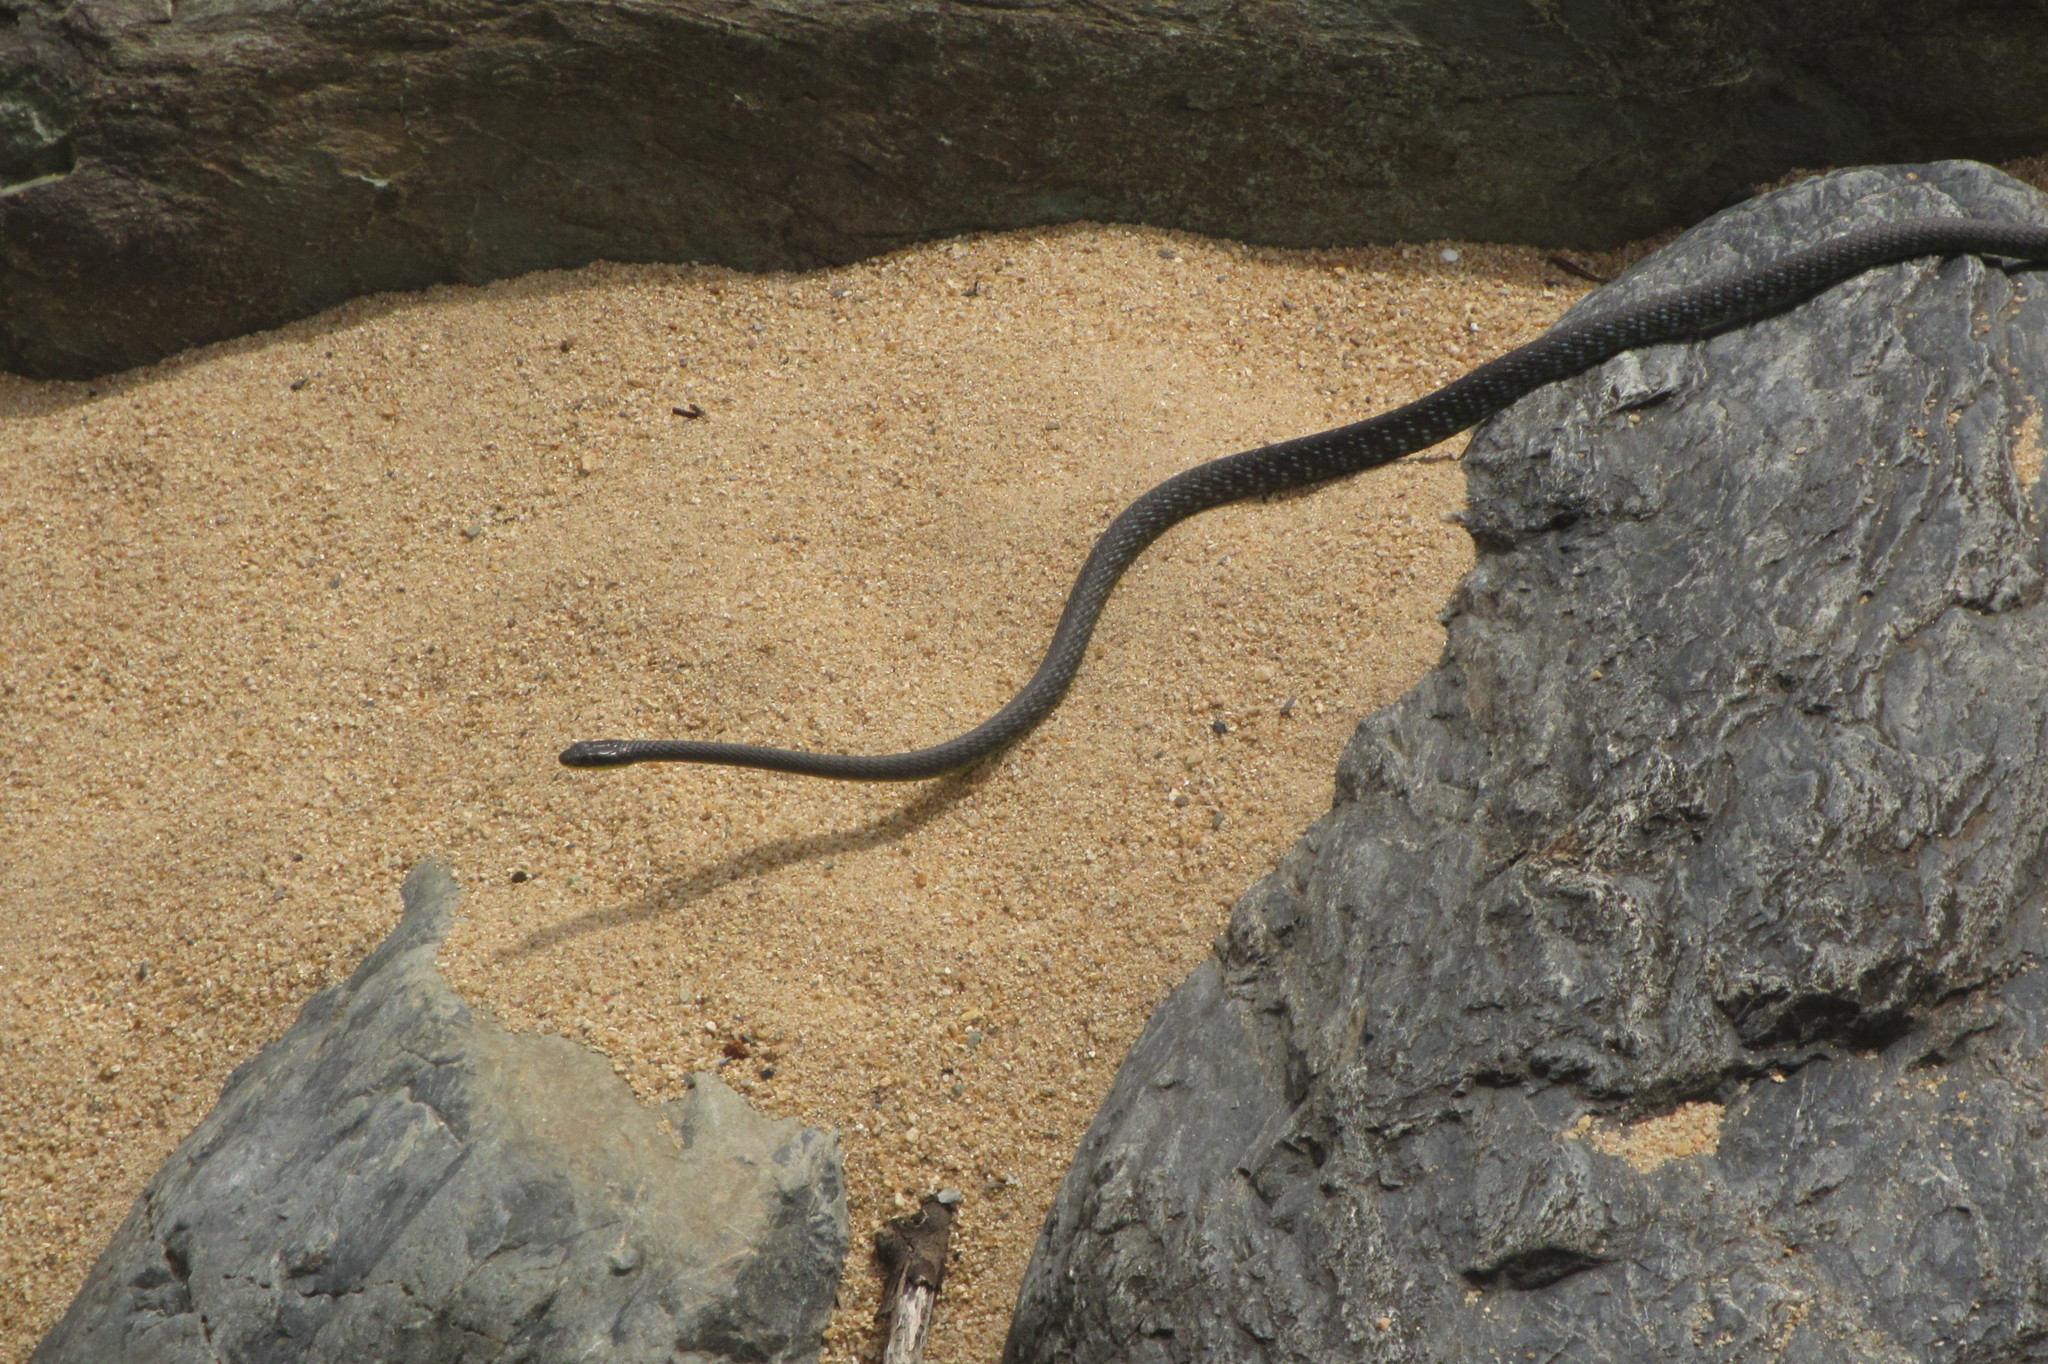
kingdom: Animalia
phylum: Chordata
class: Squamata
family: Colubridae
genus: Dendrelaphis
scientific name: Dendrelaphis punctulatus
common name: Common tree snake
